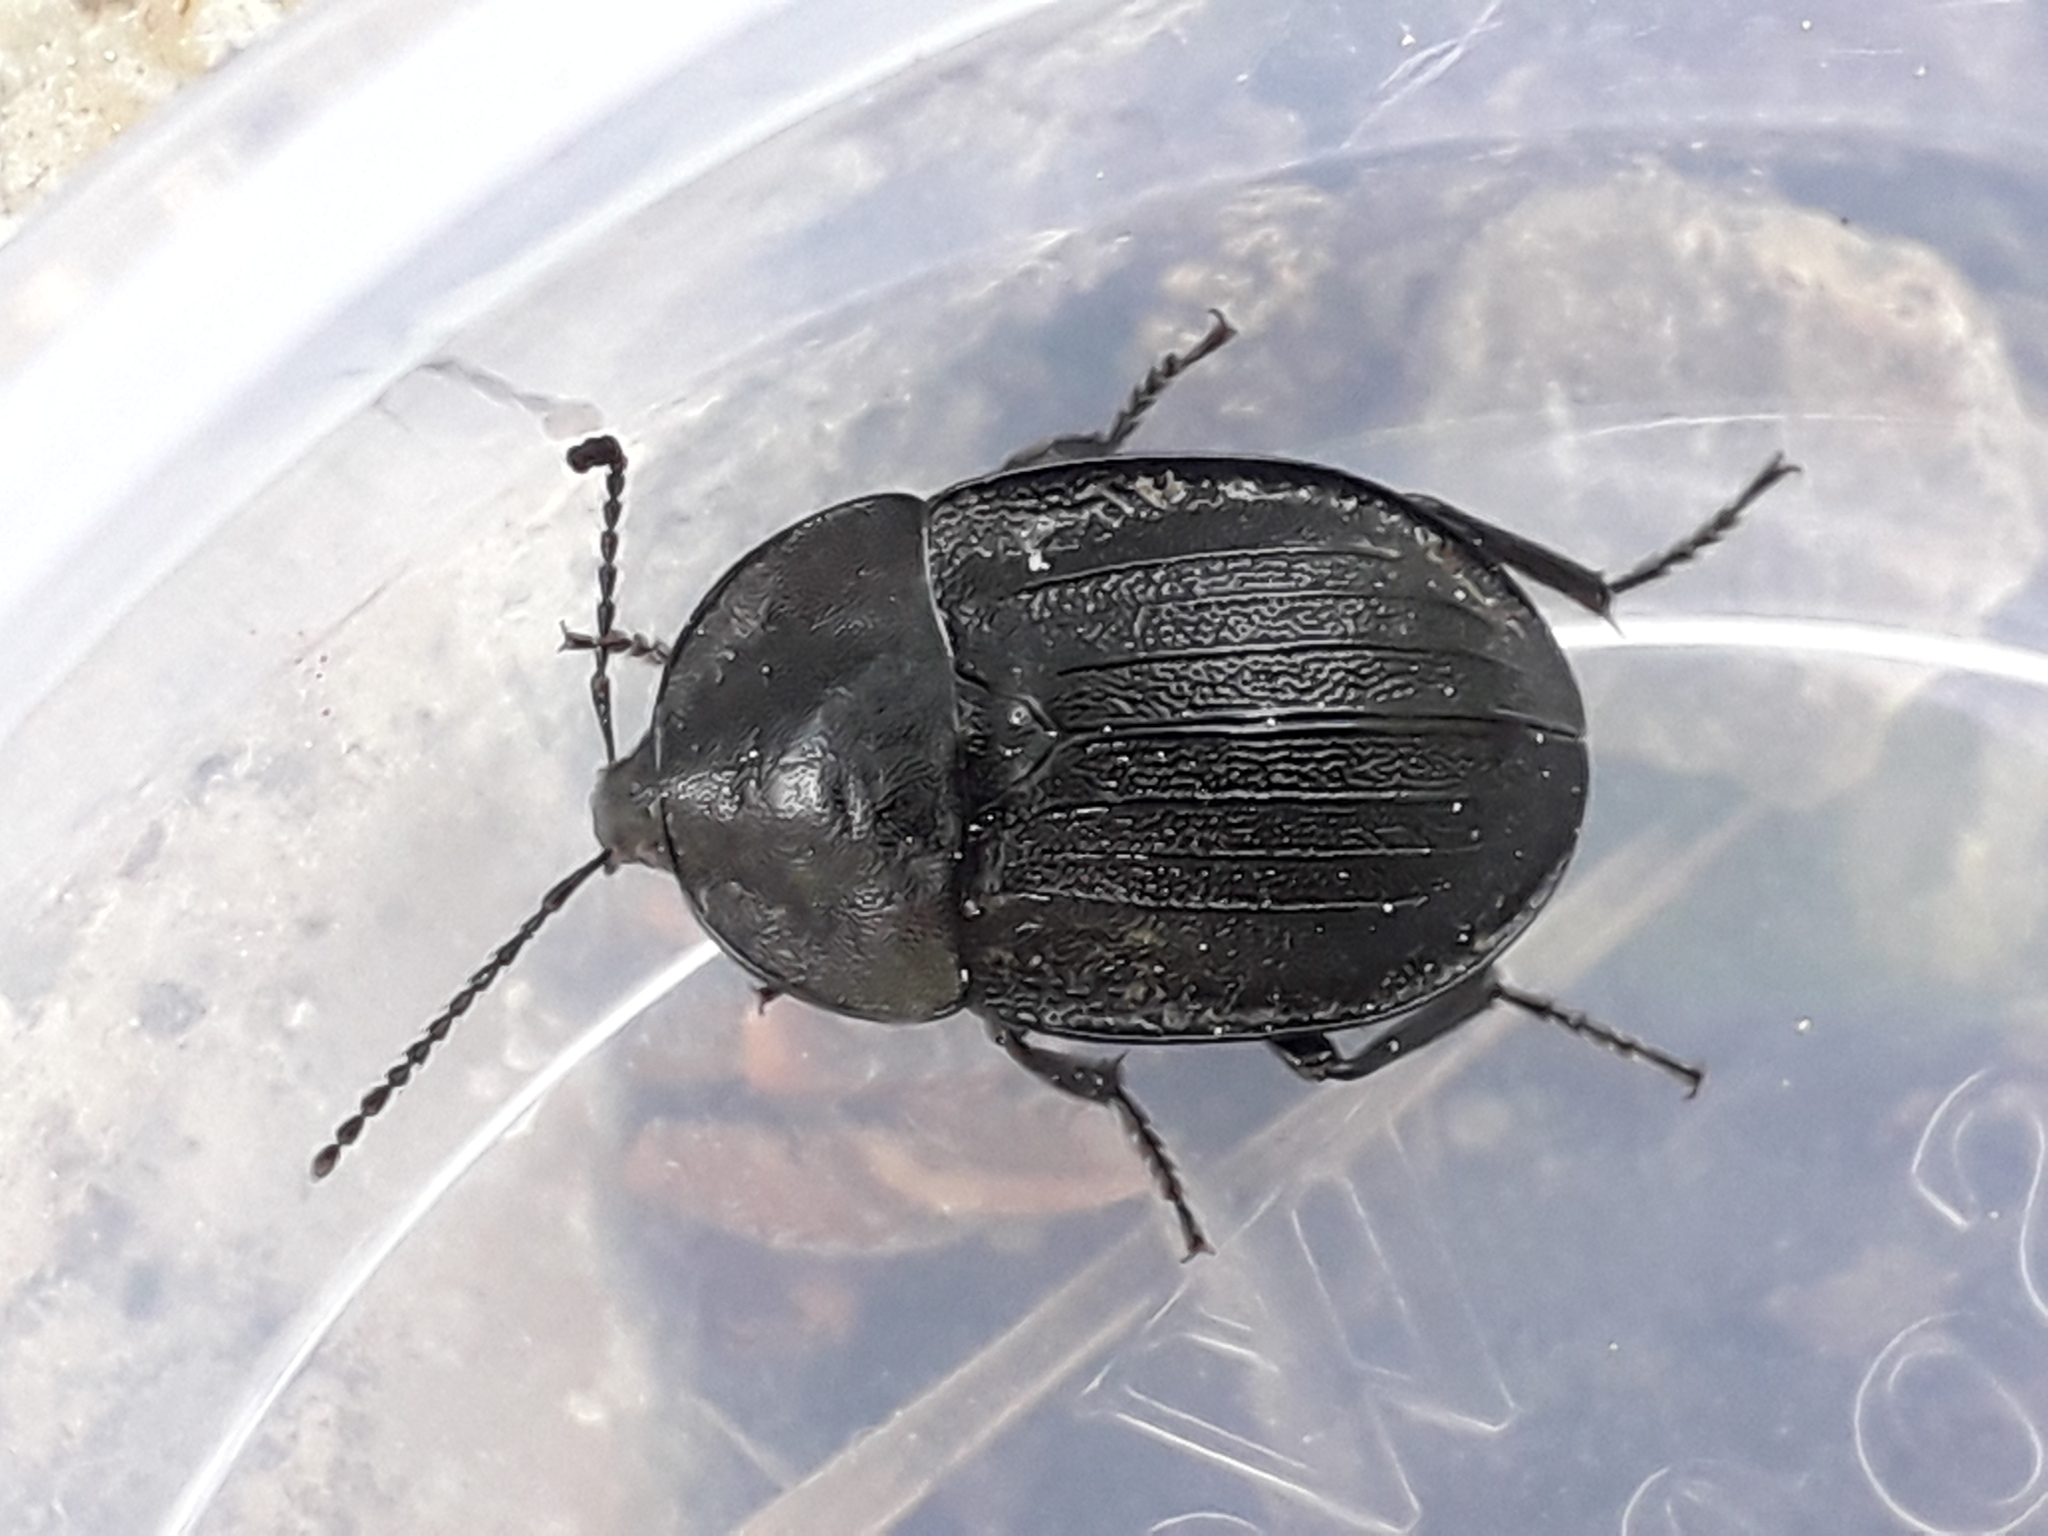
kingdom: Animalia
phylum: Arthropoda
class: Insecta
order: Coleoptera
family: Staphylinidae
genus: Silpha
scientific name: Silpha atrata
